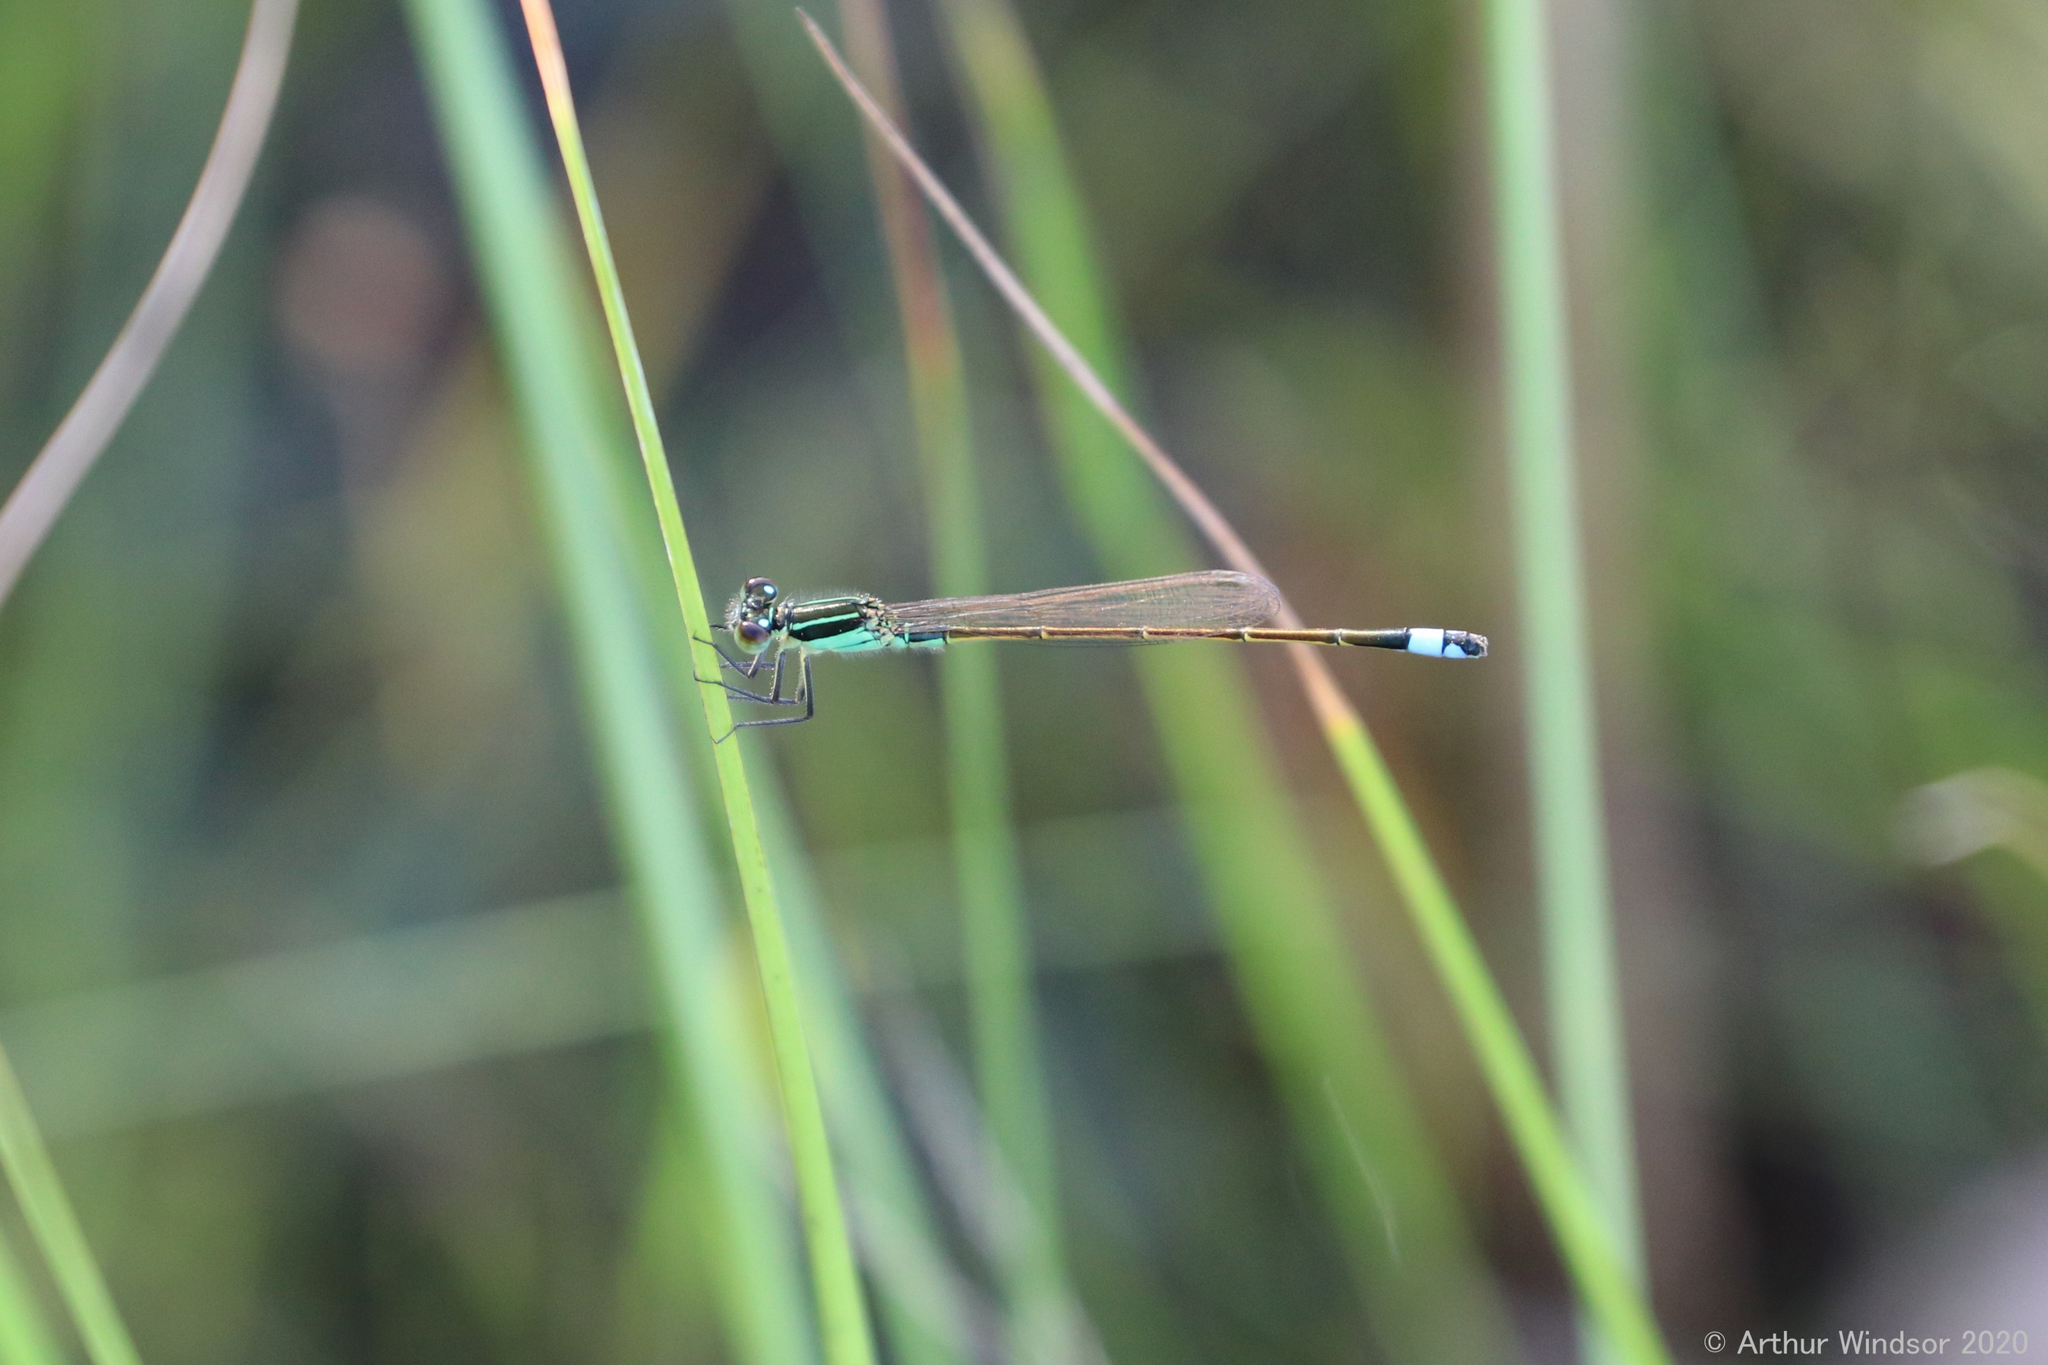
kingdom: Animalia
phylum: Arthropoda
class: Insecta
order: Odonata
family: Coenagrionidae
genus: Ischnura
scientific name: Ischnura ramburii
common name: Rambur's forktail
